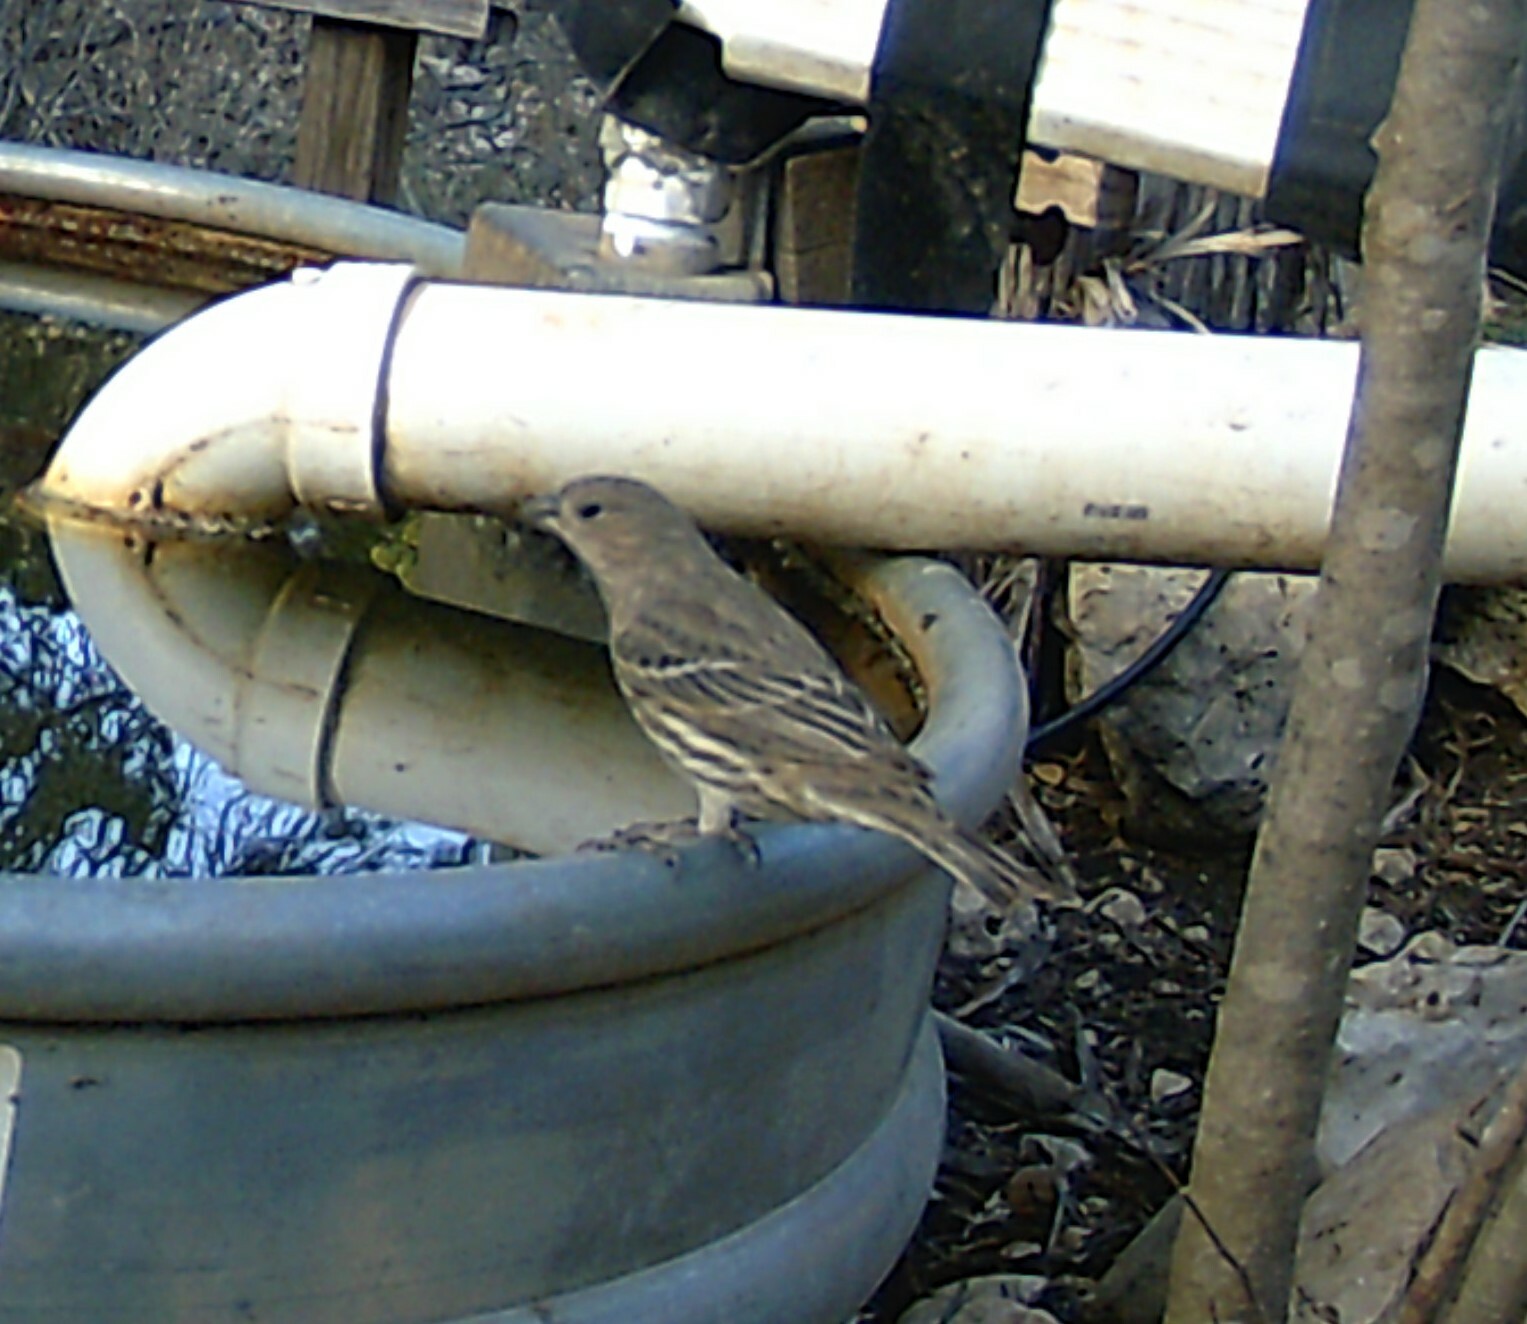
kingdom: Animalia
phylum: Chordata
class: Aves
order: Passeriformes
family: Fringillidae
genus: Haemorhous
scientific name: Haemorhous mexicanus
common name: House finch
